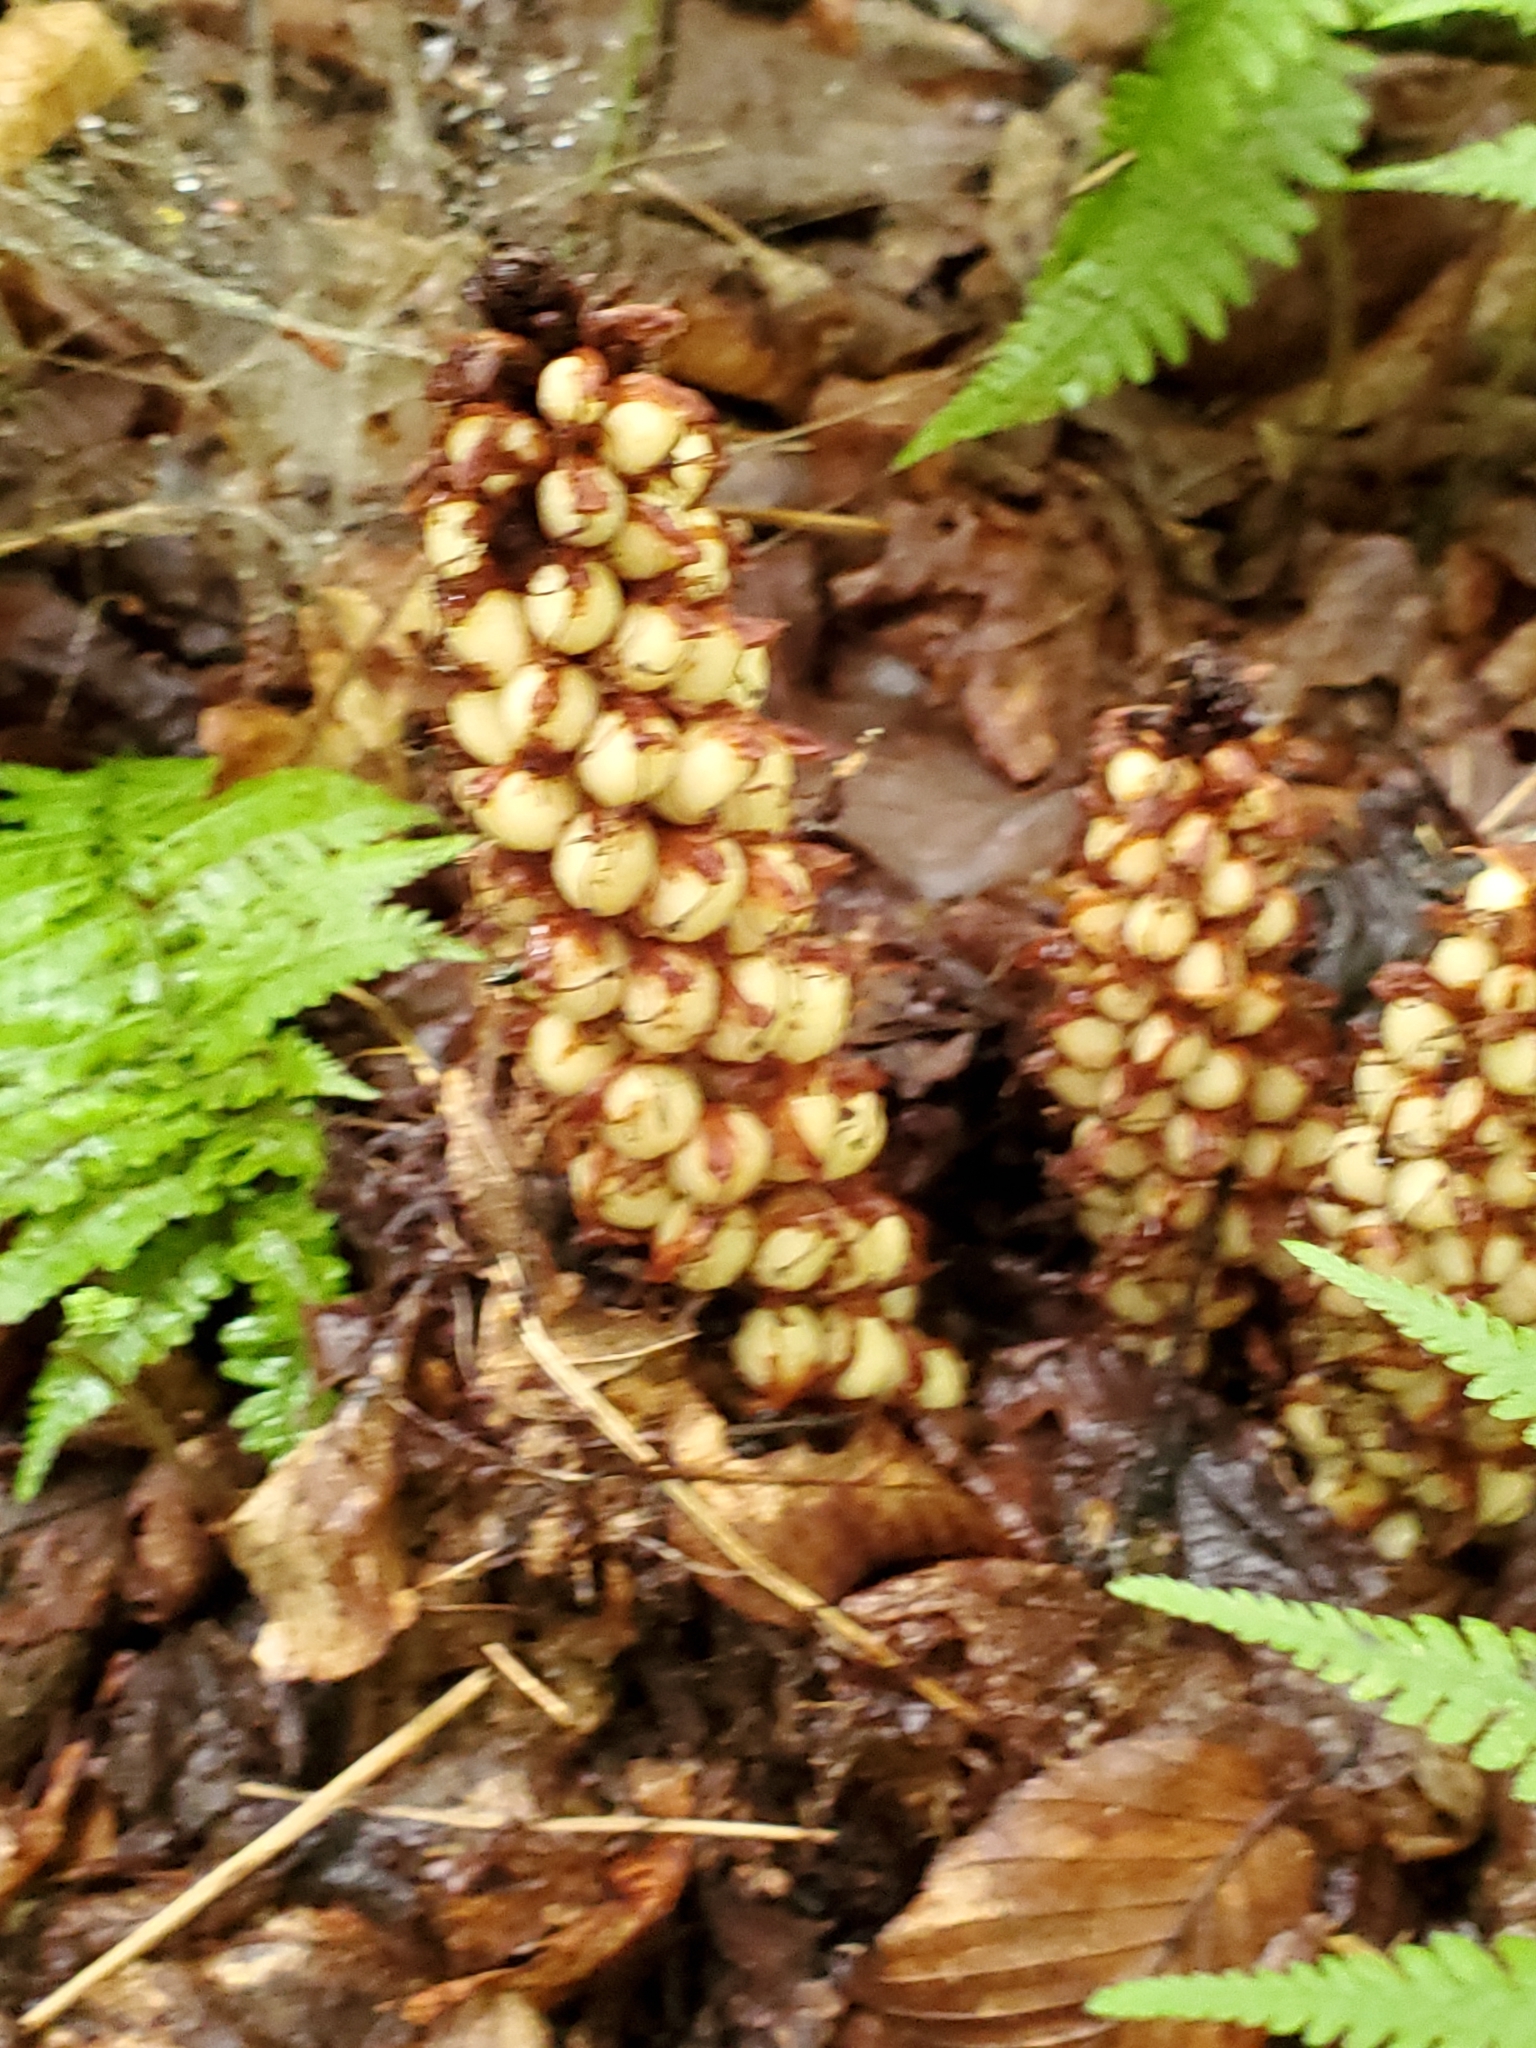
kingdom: Plantae
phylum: Tracheophyta
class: Magnoliopsida
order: Lamiales
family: Orobanchaceae
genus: Conopholis
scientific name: Conopholis americana
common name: American cancer-root
